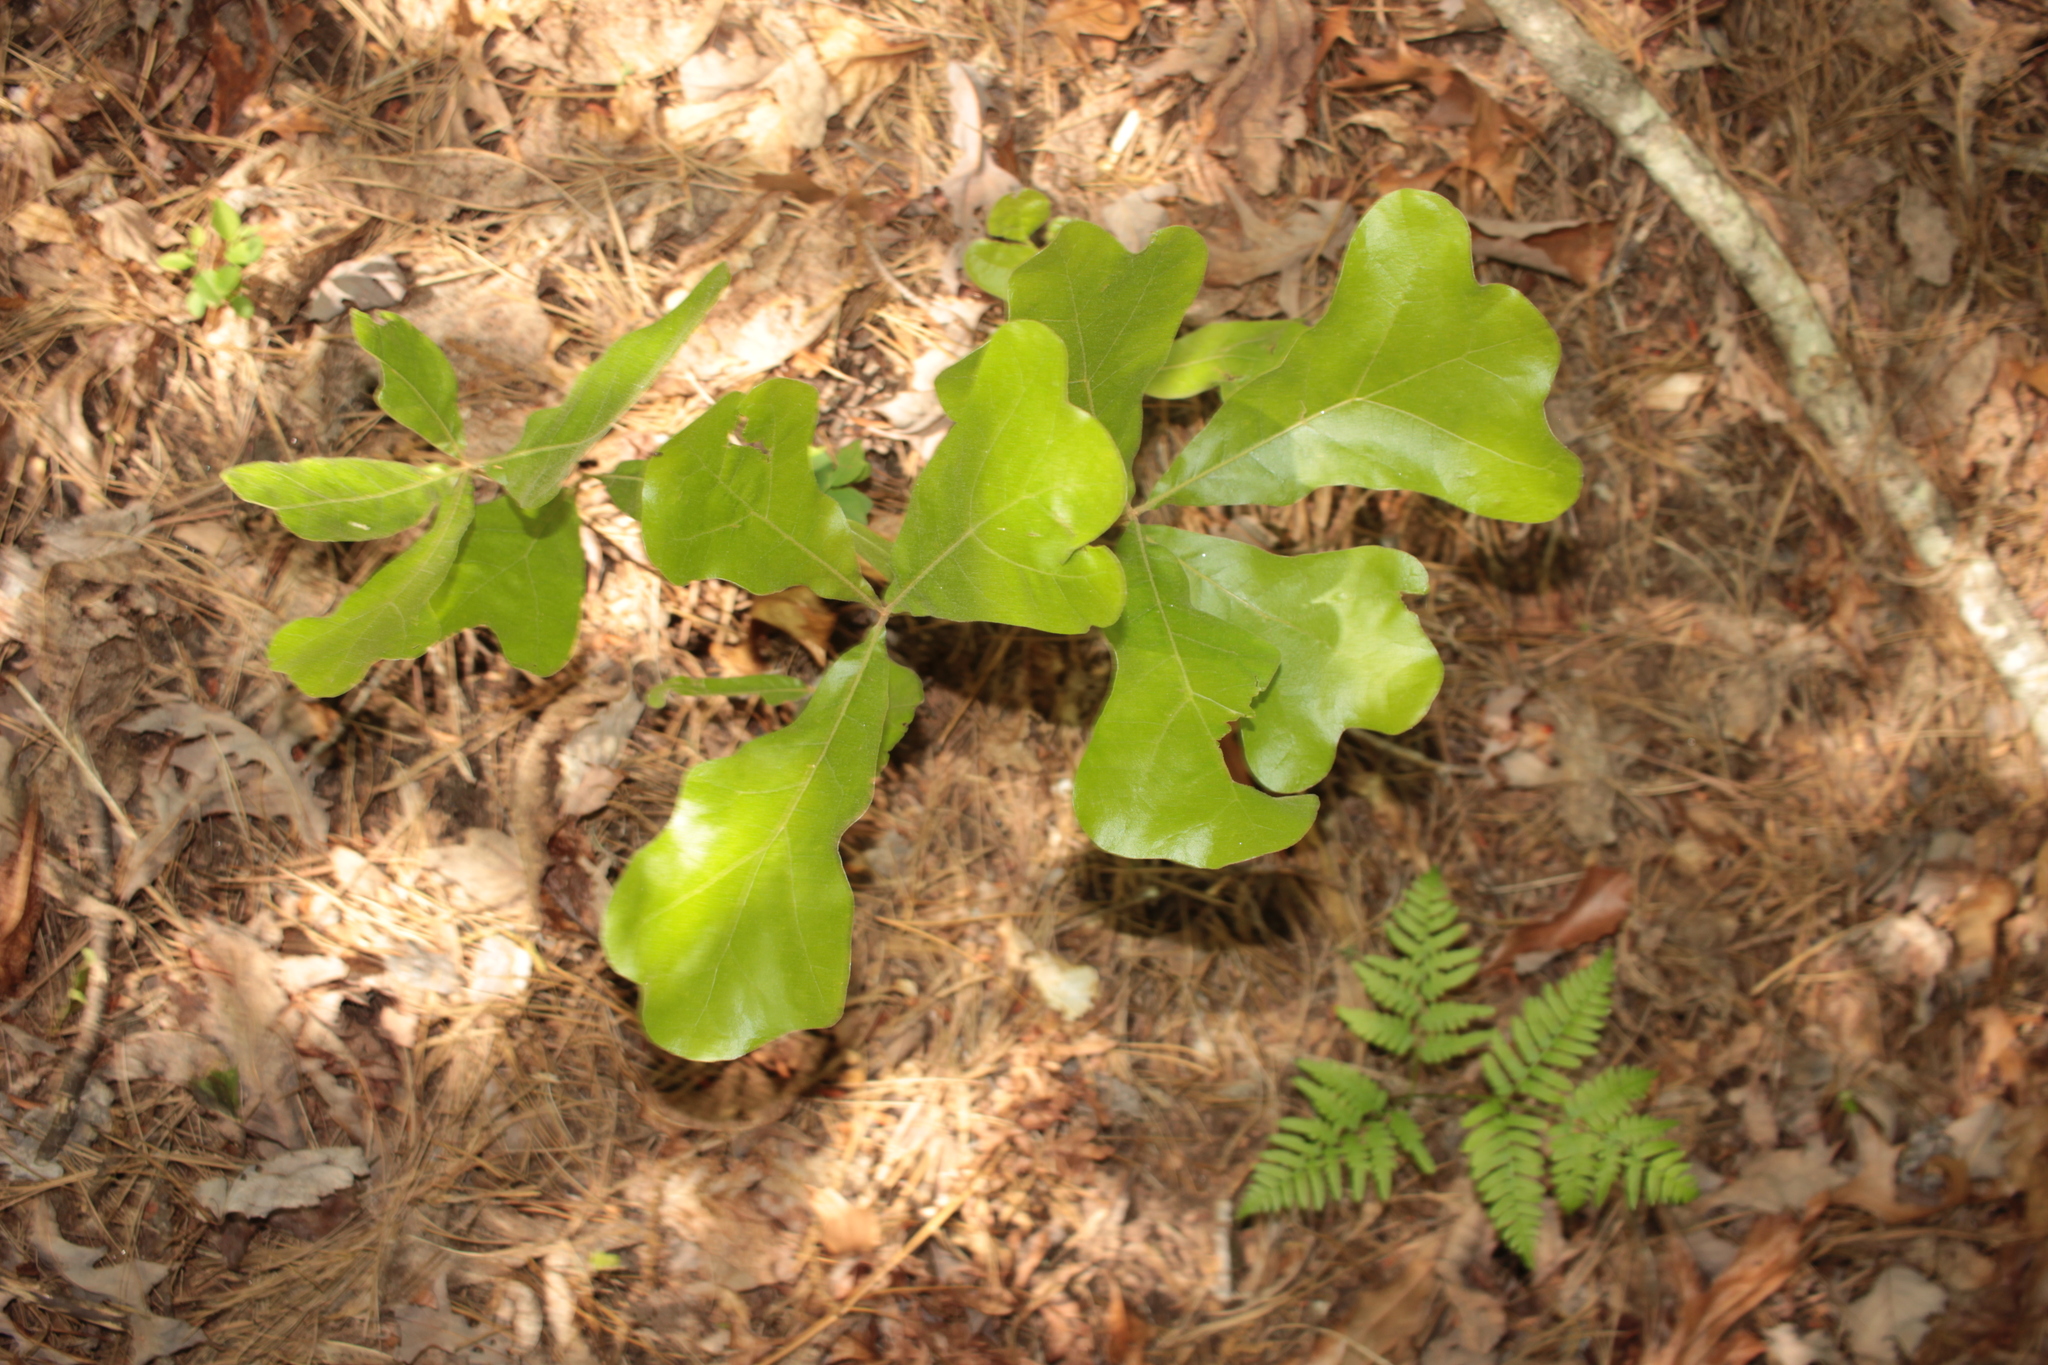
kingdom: Plantae
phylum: Tracheophyta
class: Magnoliopsida
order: Fagales
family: Fagaceae
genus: Quercus
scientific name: Quercus marilandica
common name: Blackjack oak
